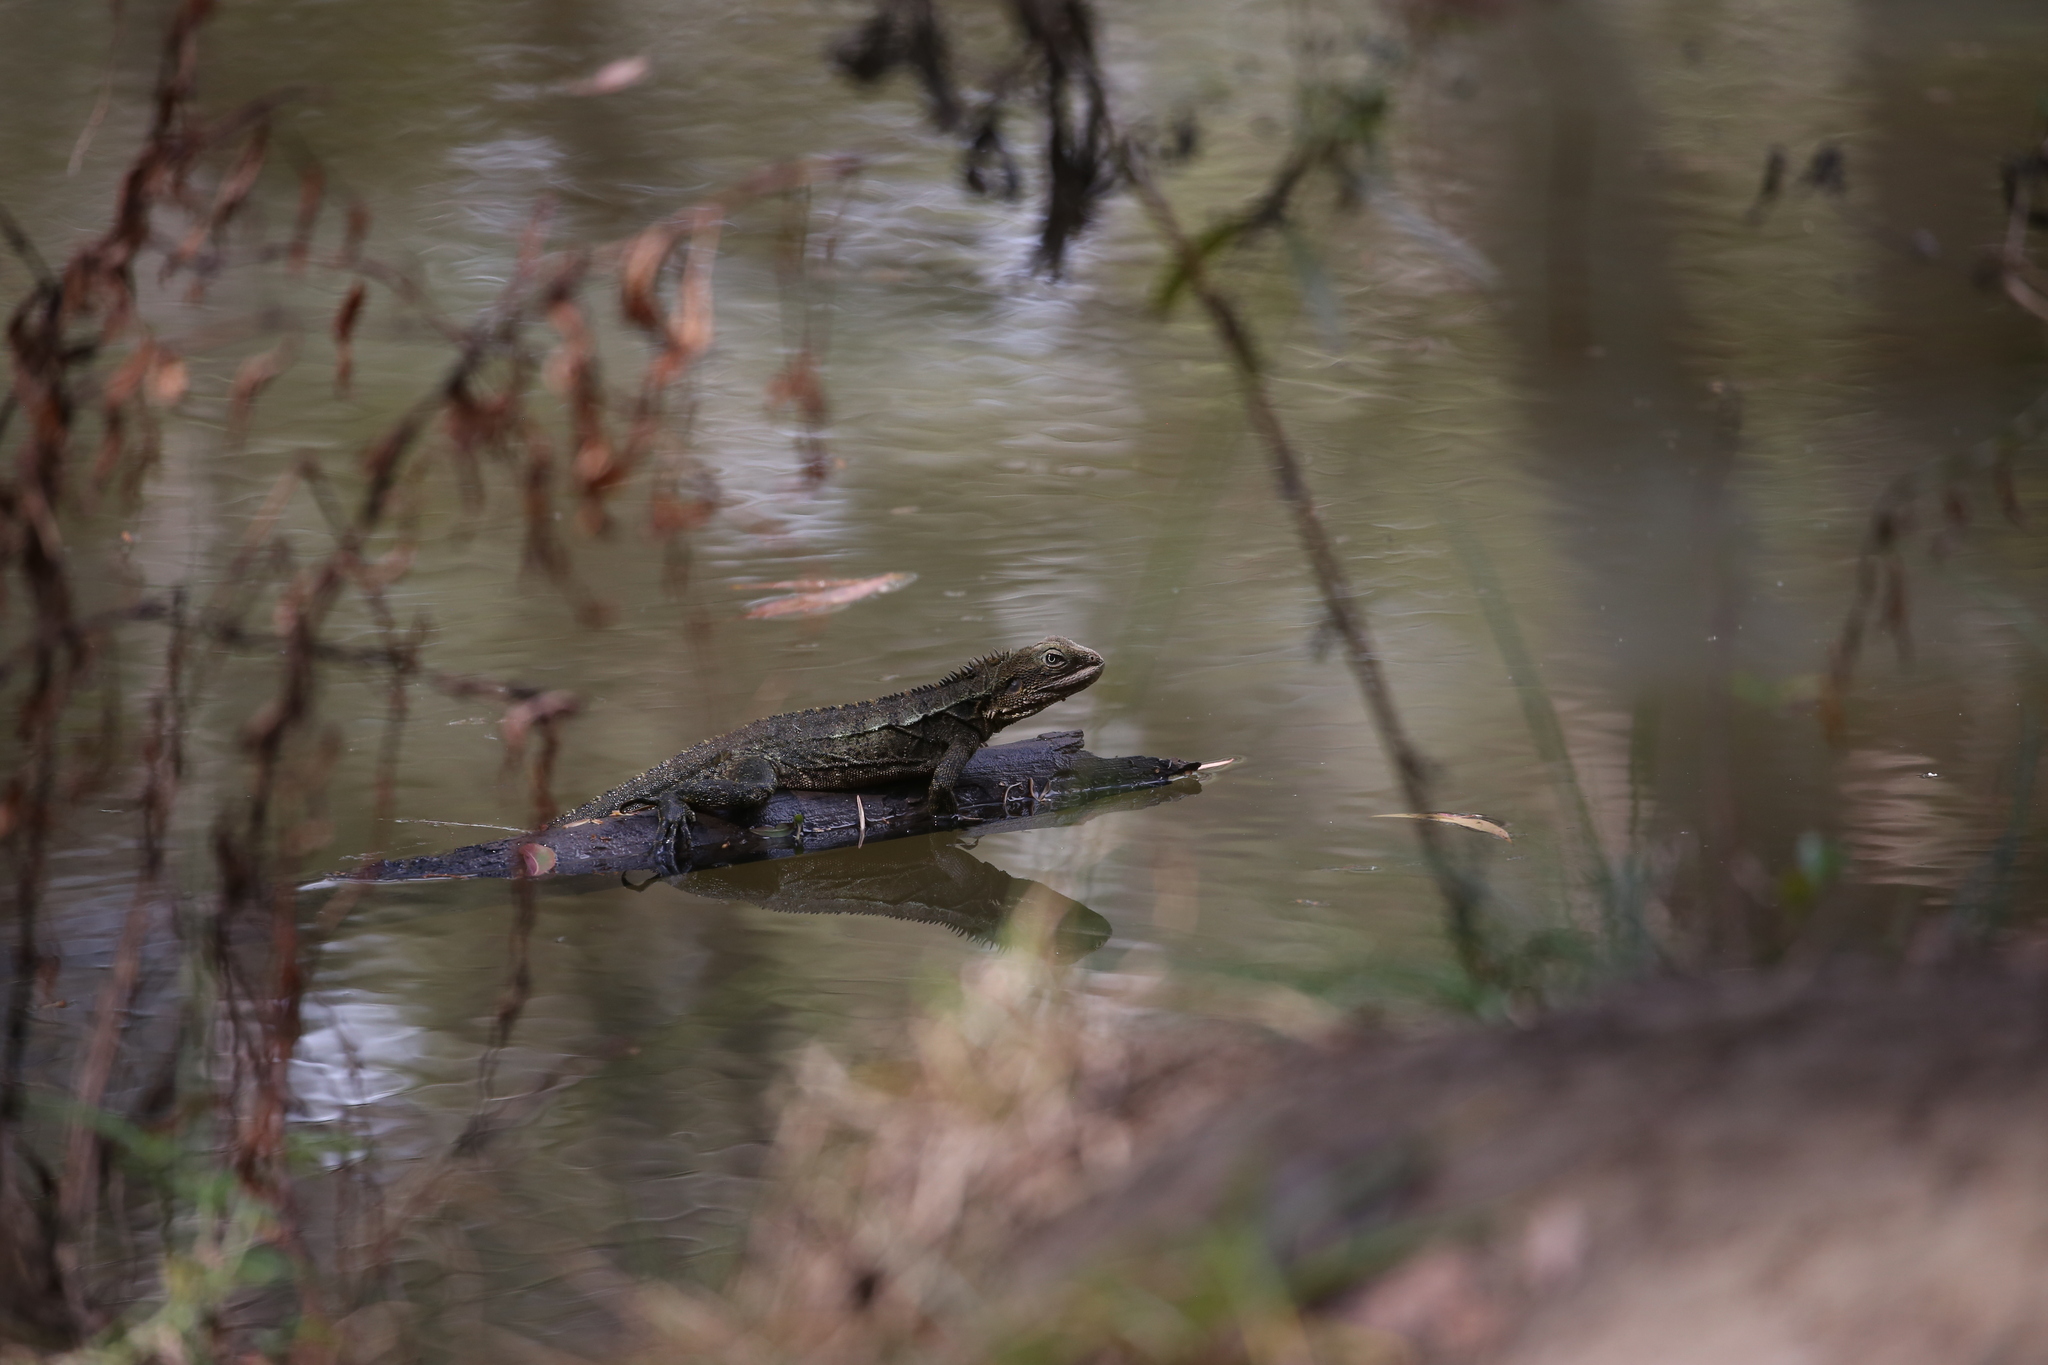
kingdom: Animalia
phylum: Chordata
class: Squamata
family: Agamidae
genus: Intellagama
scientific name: Intellagama lesueurii
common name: Eastern water dragon
